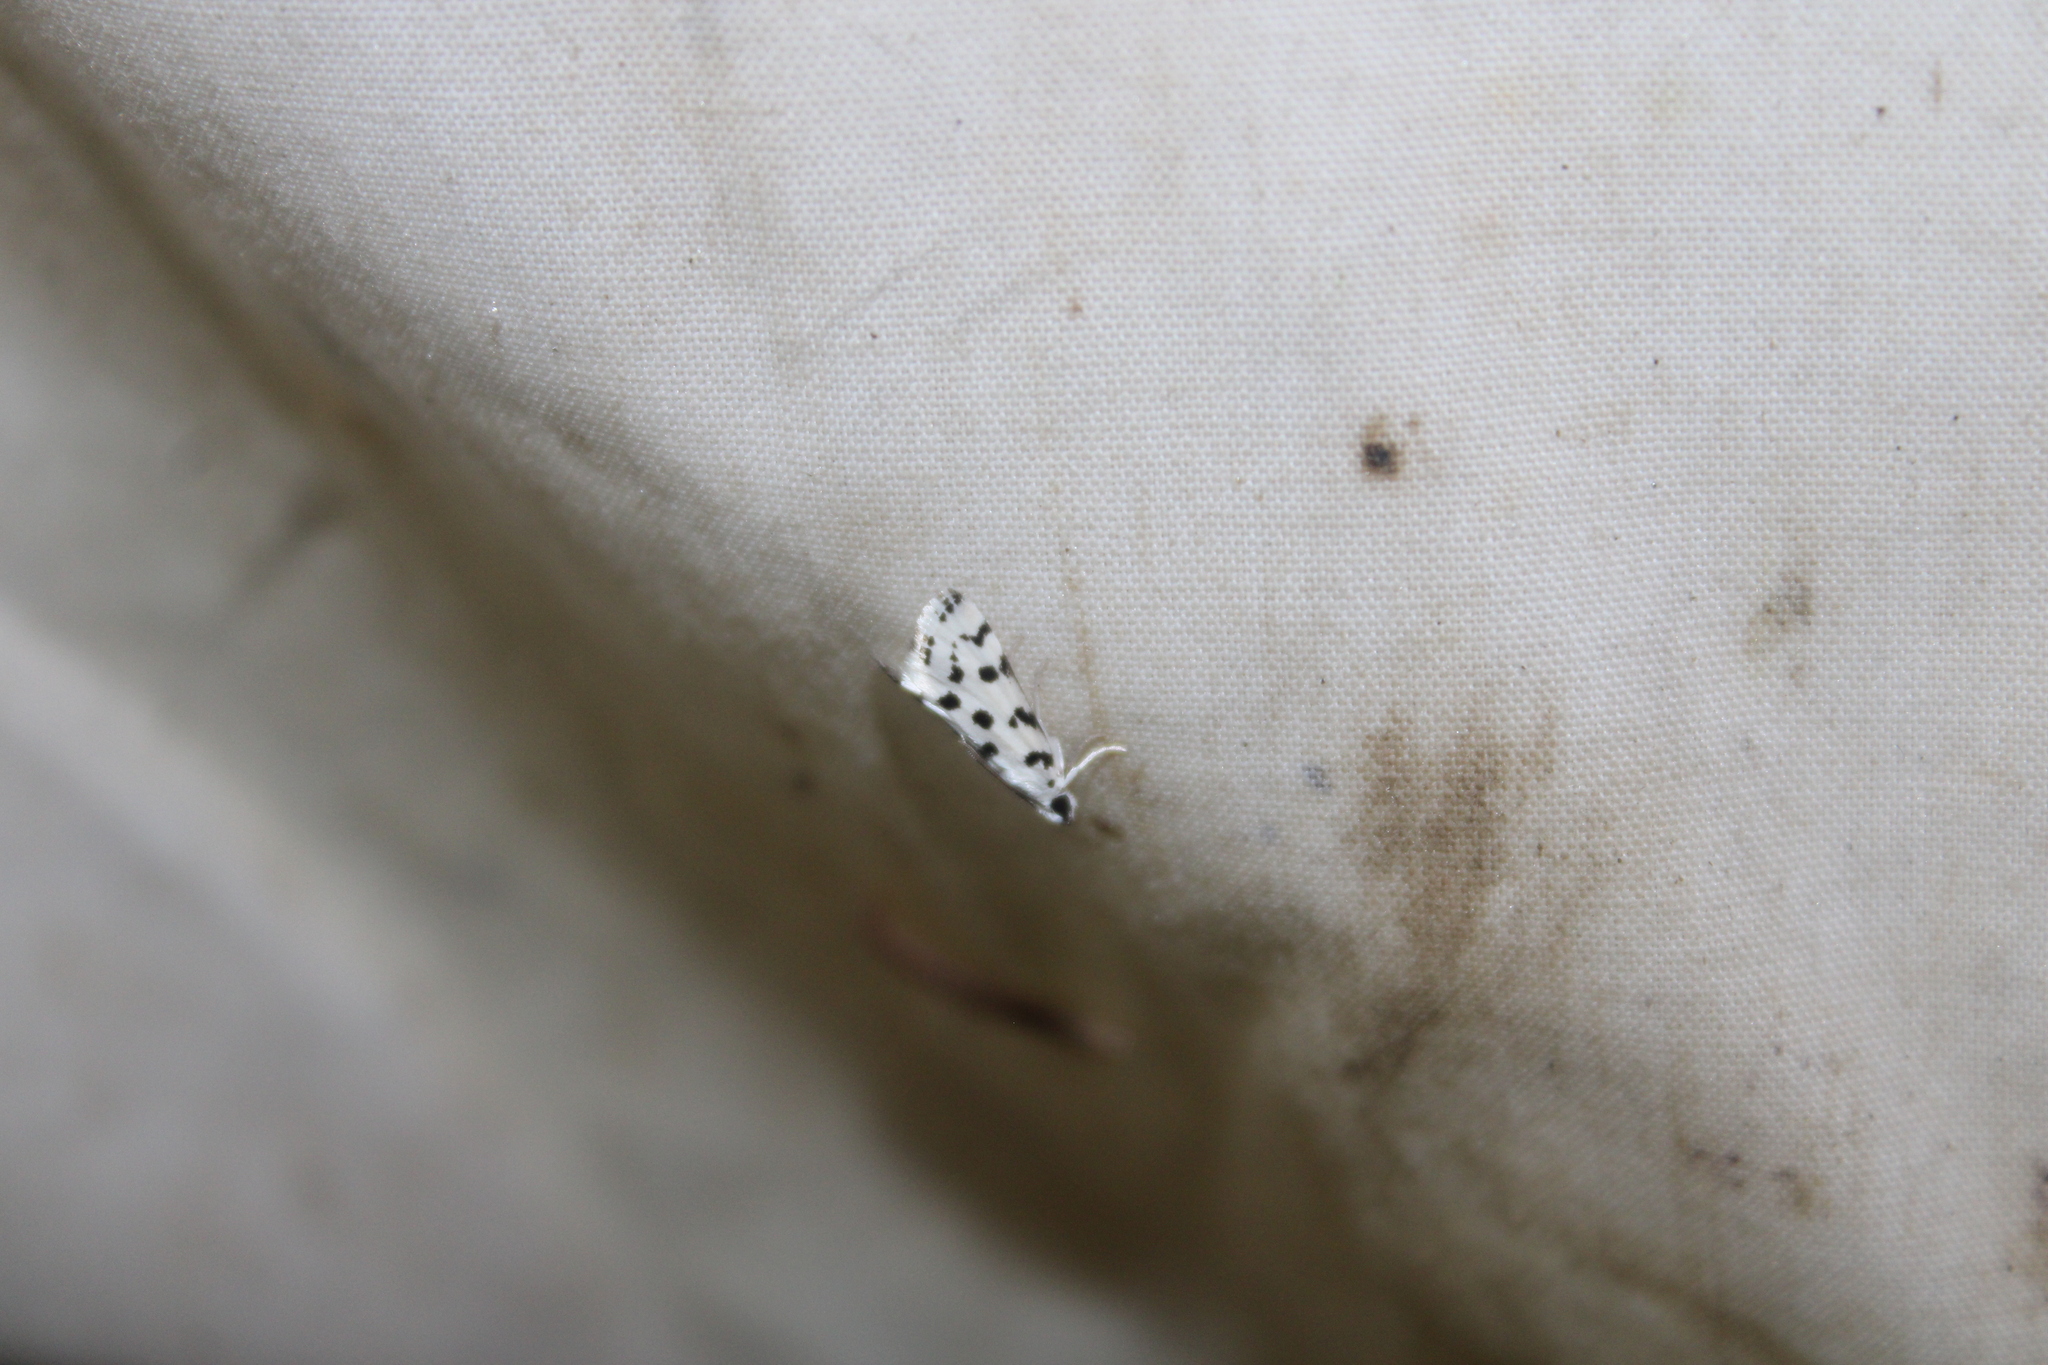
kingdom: Animalia
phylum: Arthropoda
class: Insecta
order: Lepidoptera
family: Crambidae
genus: Eustixia
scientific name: Eustixia pupula
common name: American cabbage pearl
